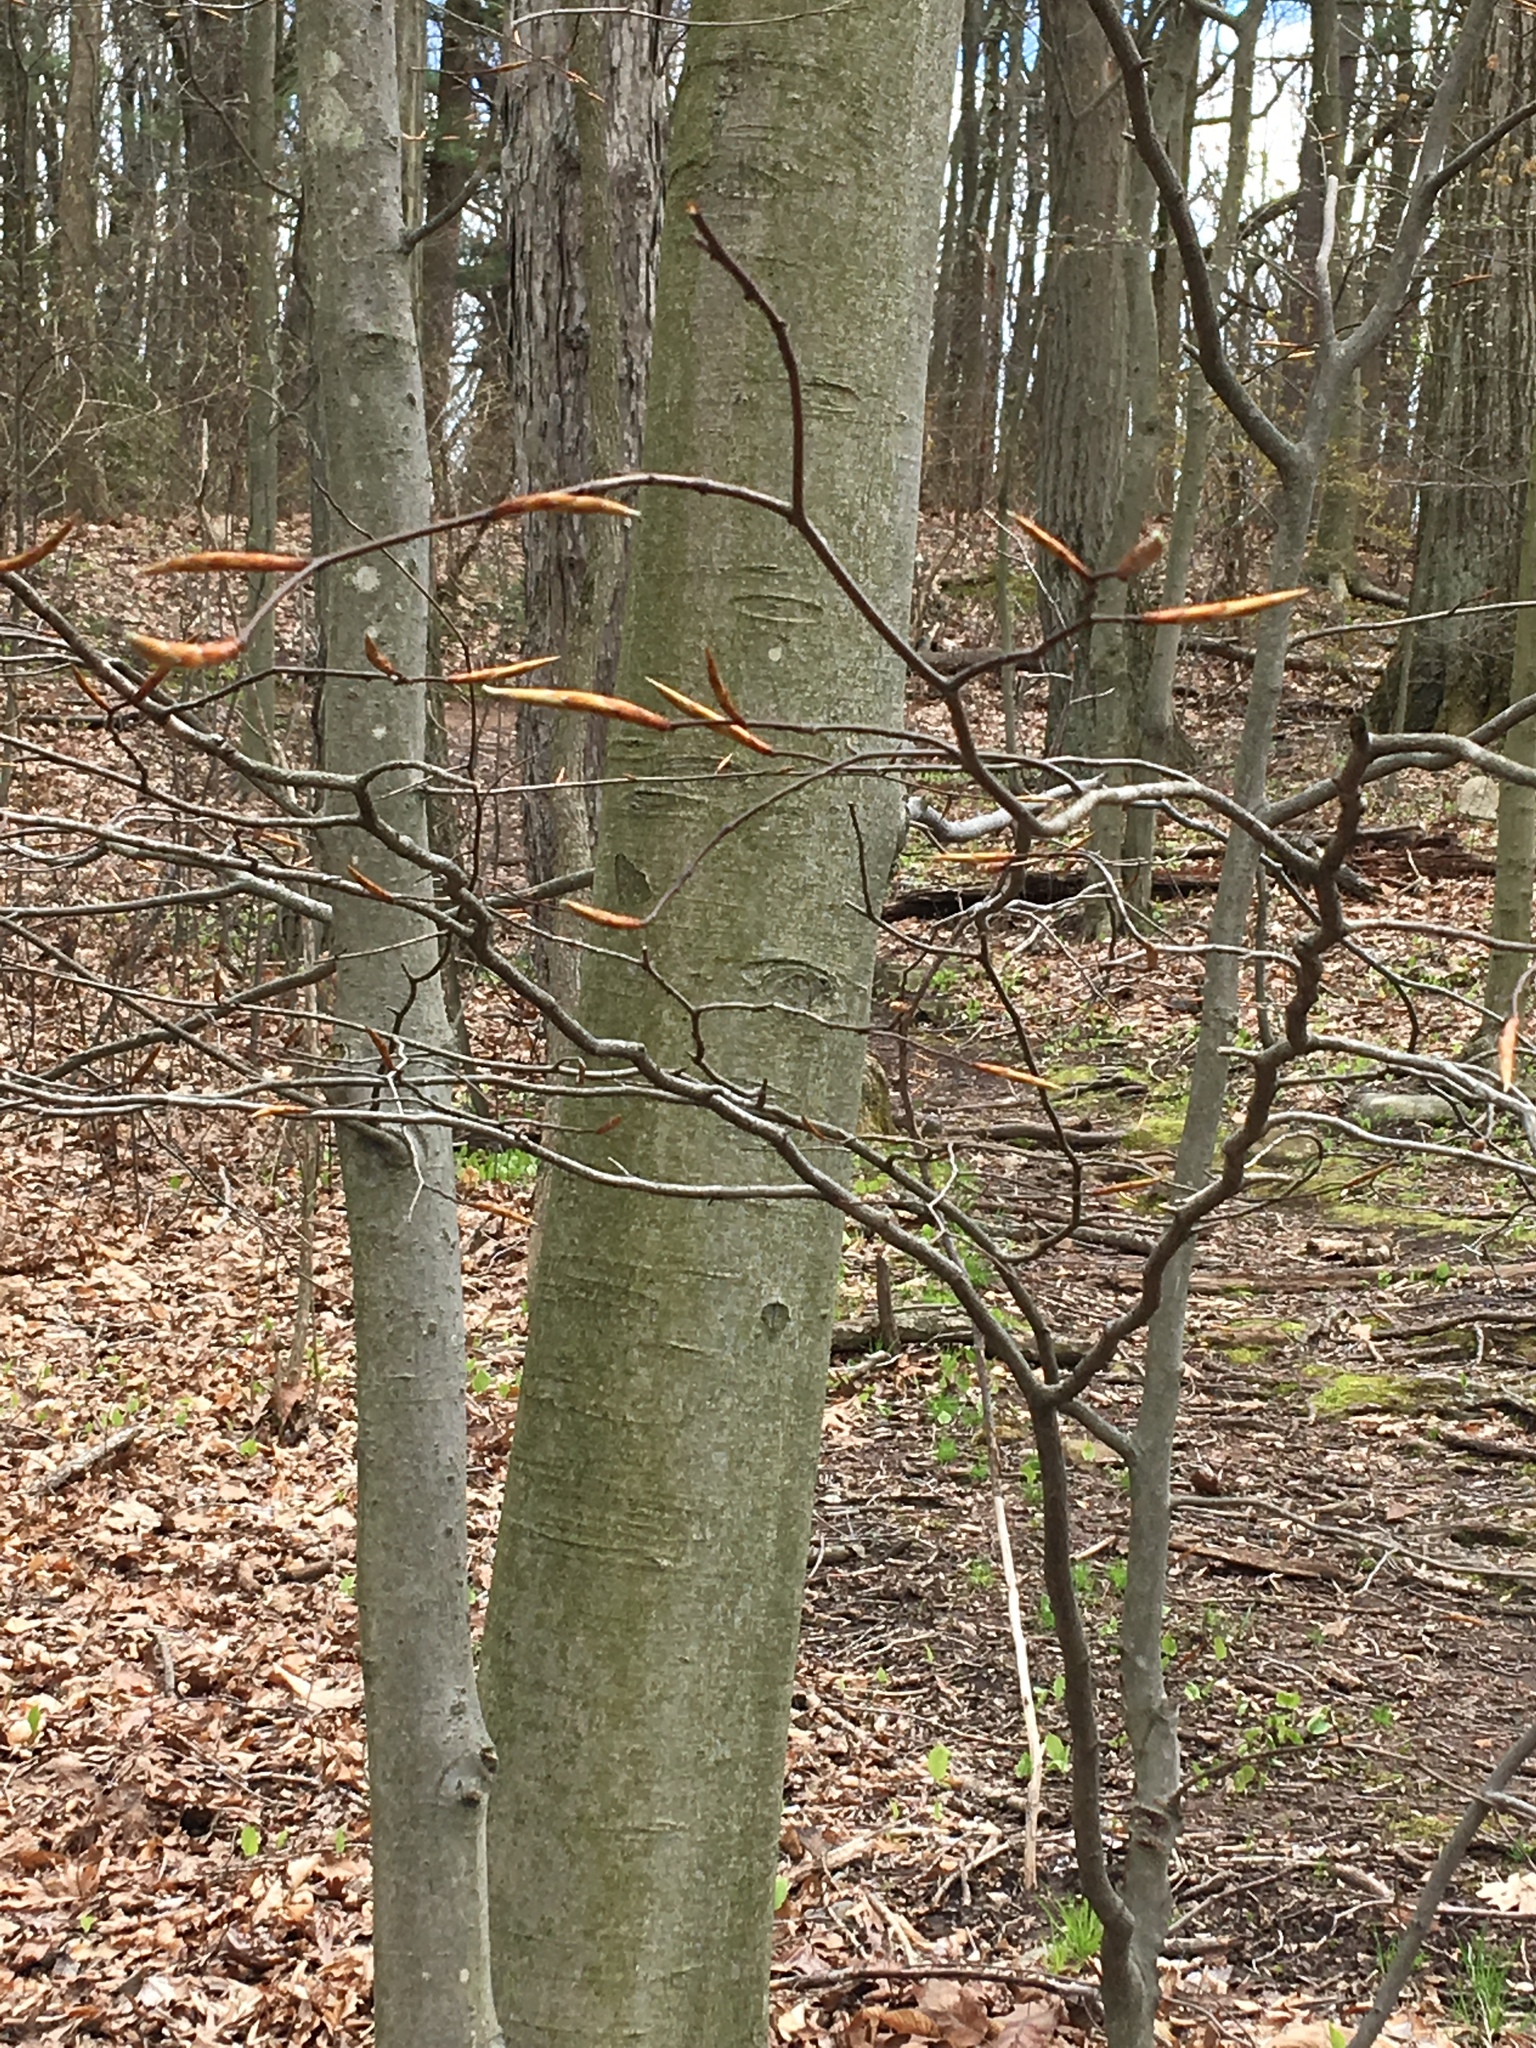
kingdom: Plantae
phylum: Tracheophyta
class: Magnoliopsida
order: Fagales
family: Fagaceae
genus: Fagus
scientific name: Fagus grandifolia
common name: American beech
